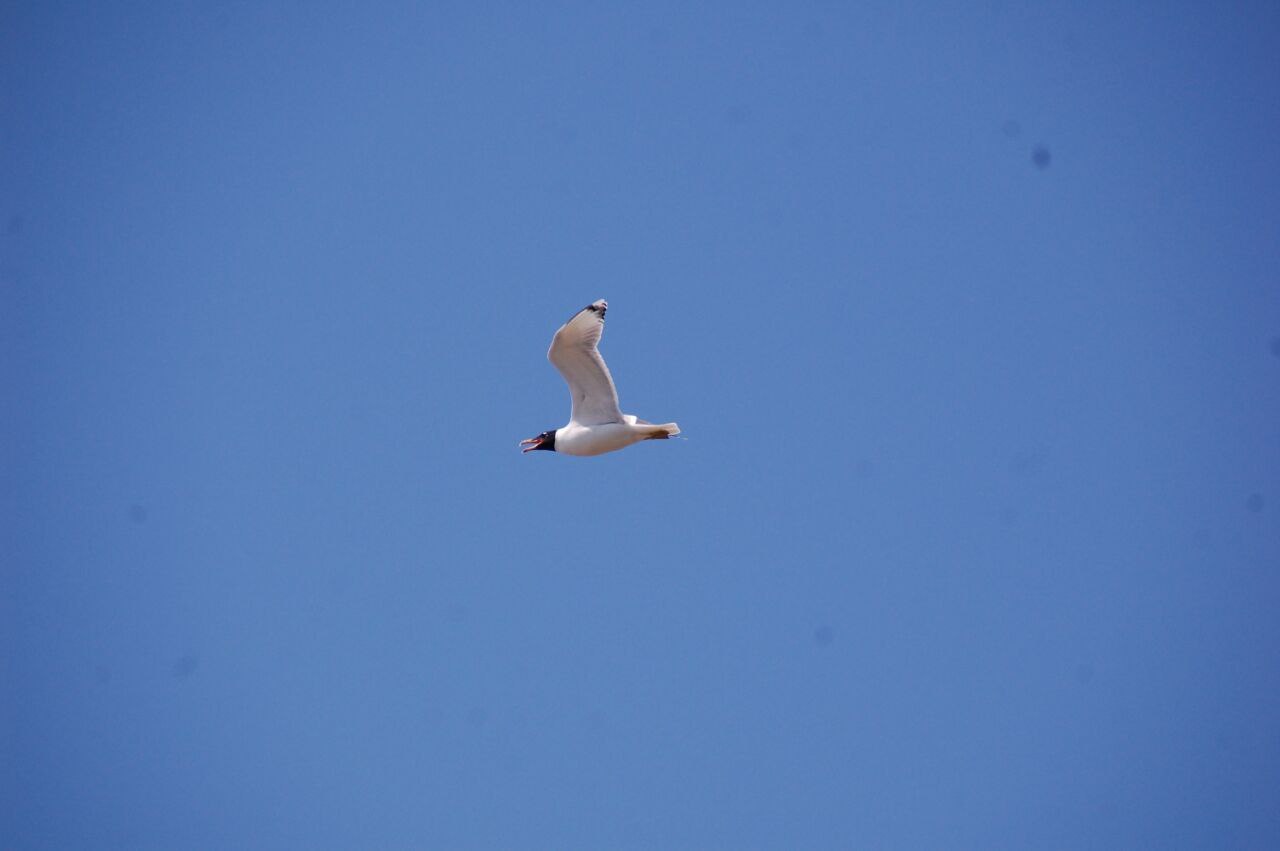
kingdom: Animalia
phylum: Chordata
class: Aves
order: Charadriiformes
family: Laridae
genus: Ichthyaetus
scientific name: Ichthyaetus ichthyaetus
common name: Pallas's gull
